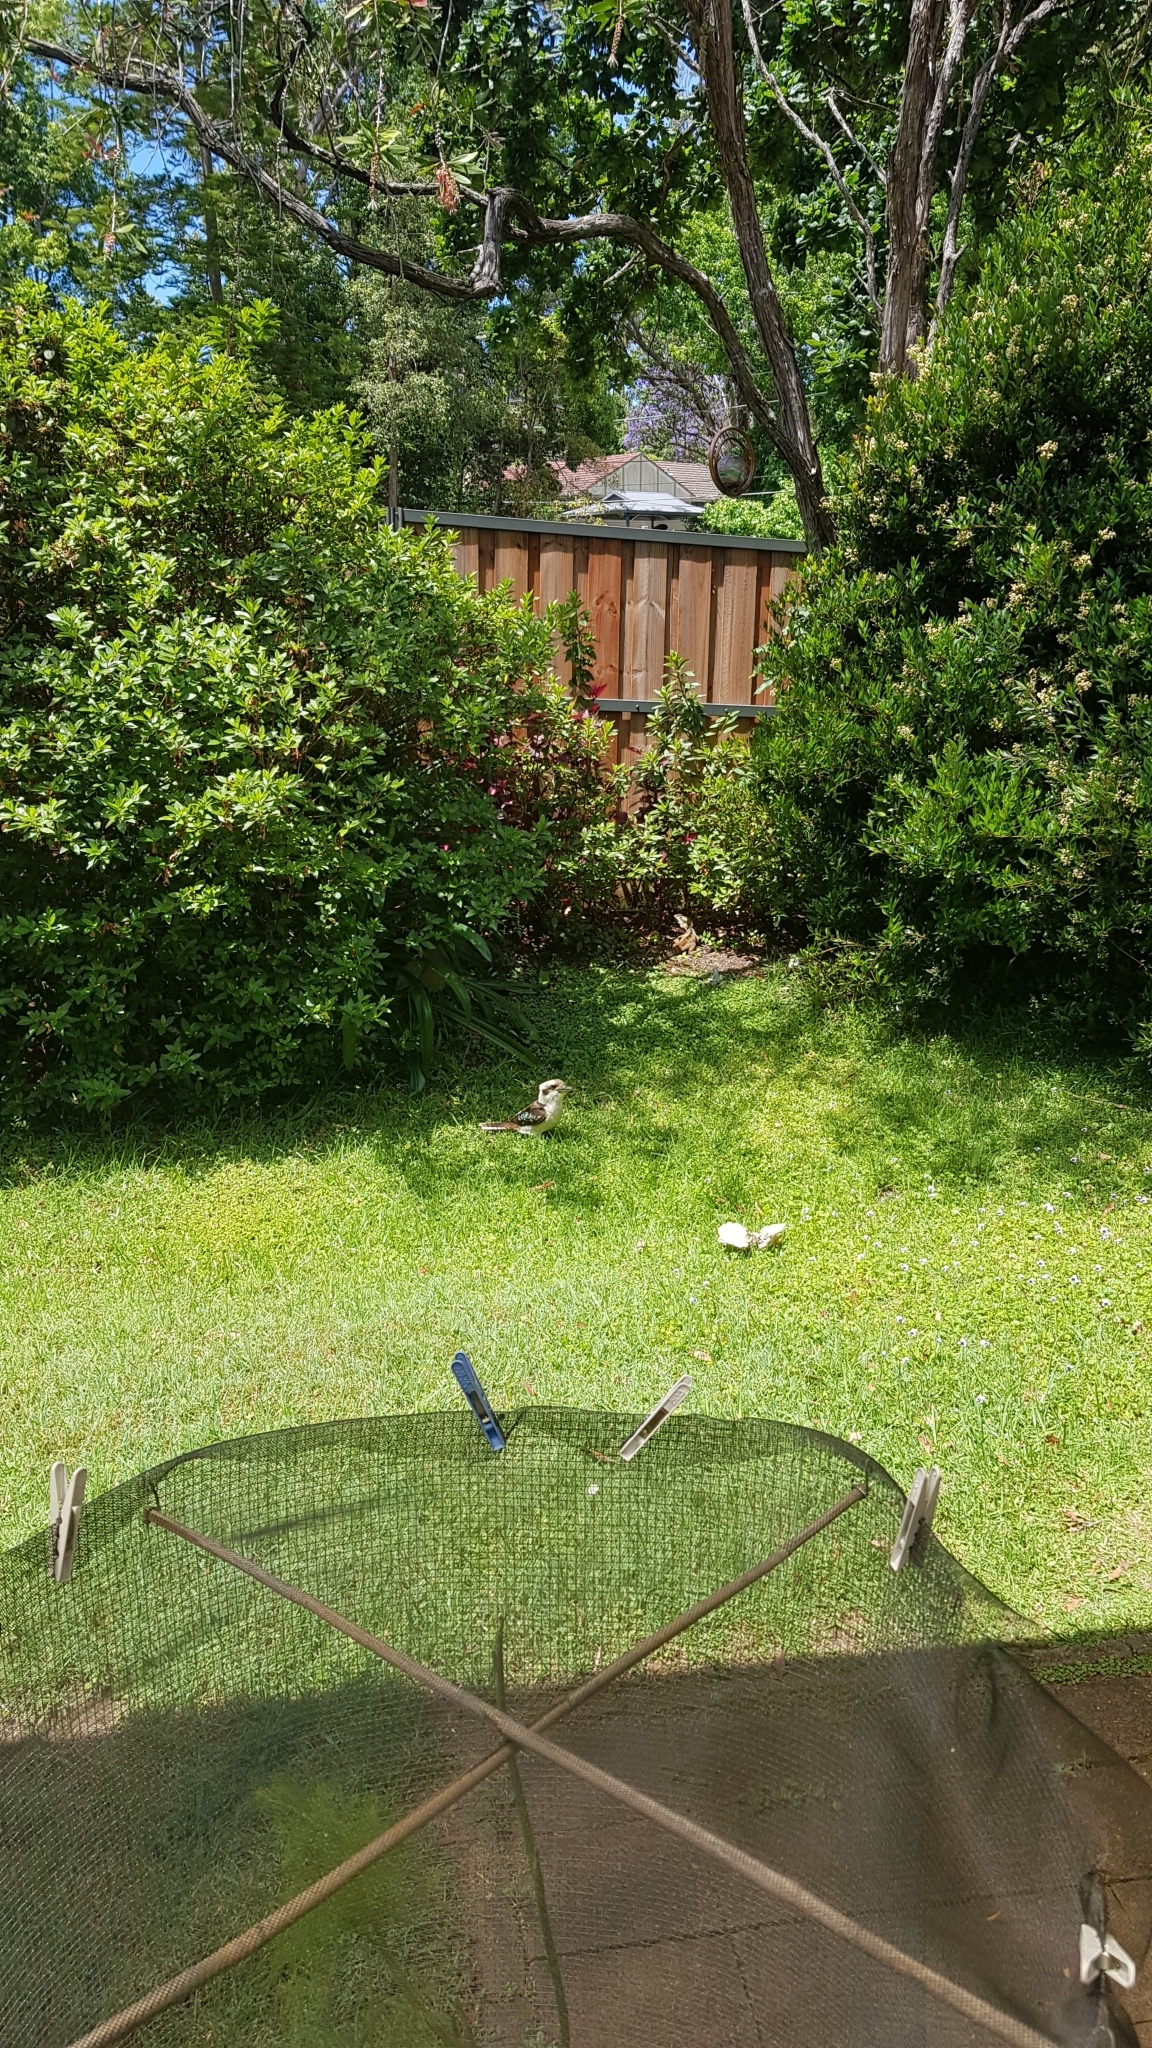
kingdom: Animalia
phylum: Chordata
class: Squamata
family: Agamidae
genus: Intellagama
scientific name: Intellagama lesueurii
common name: Eastern water dragon
